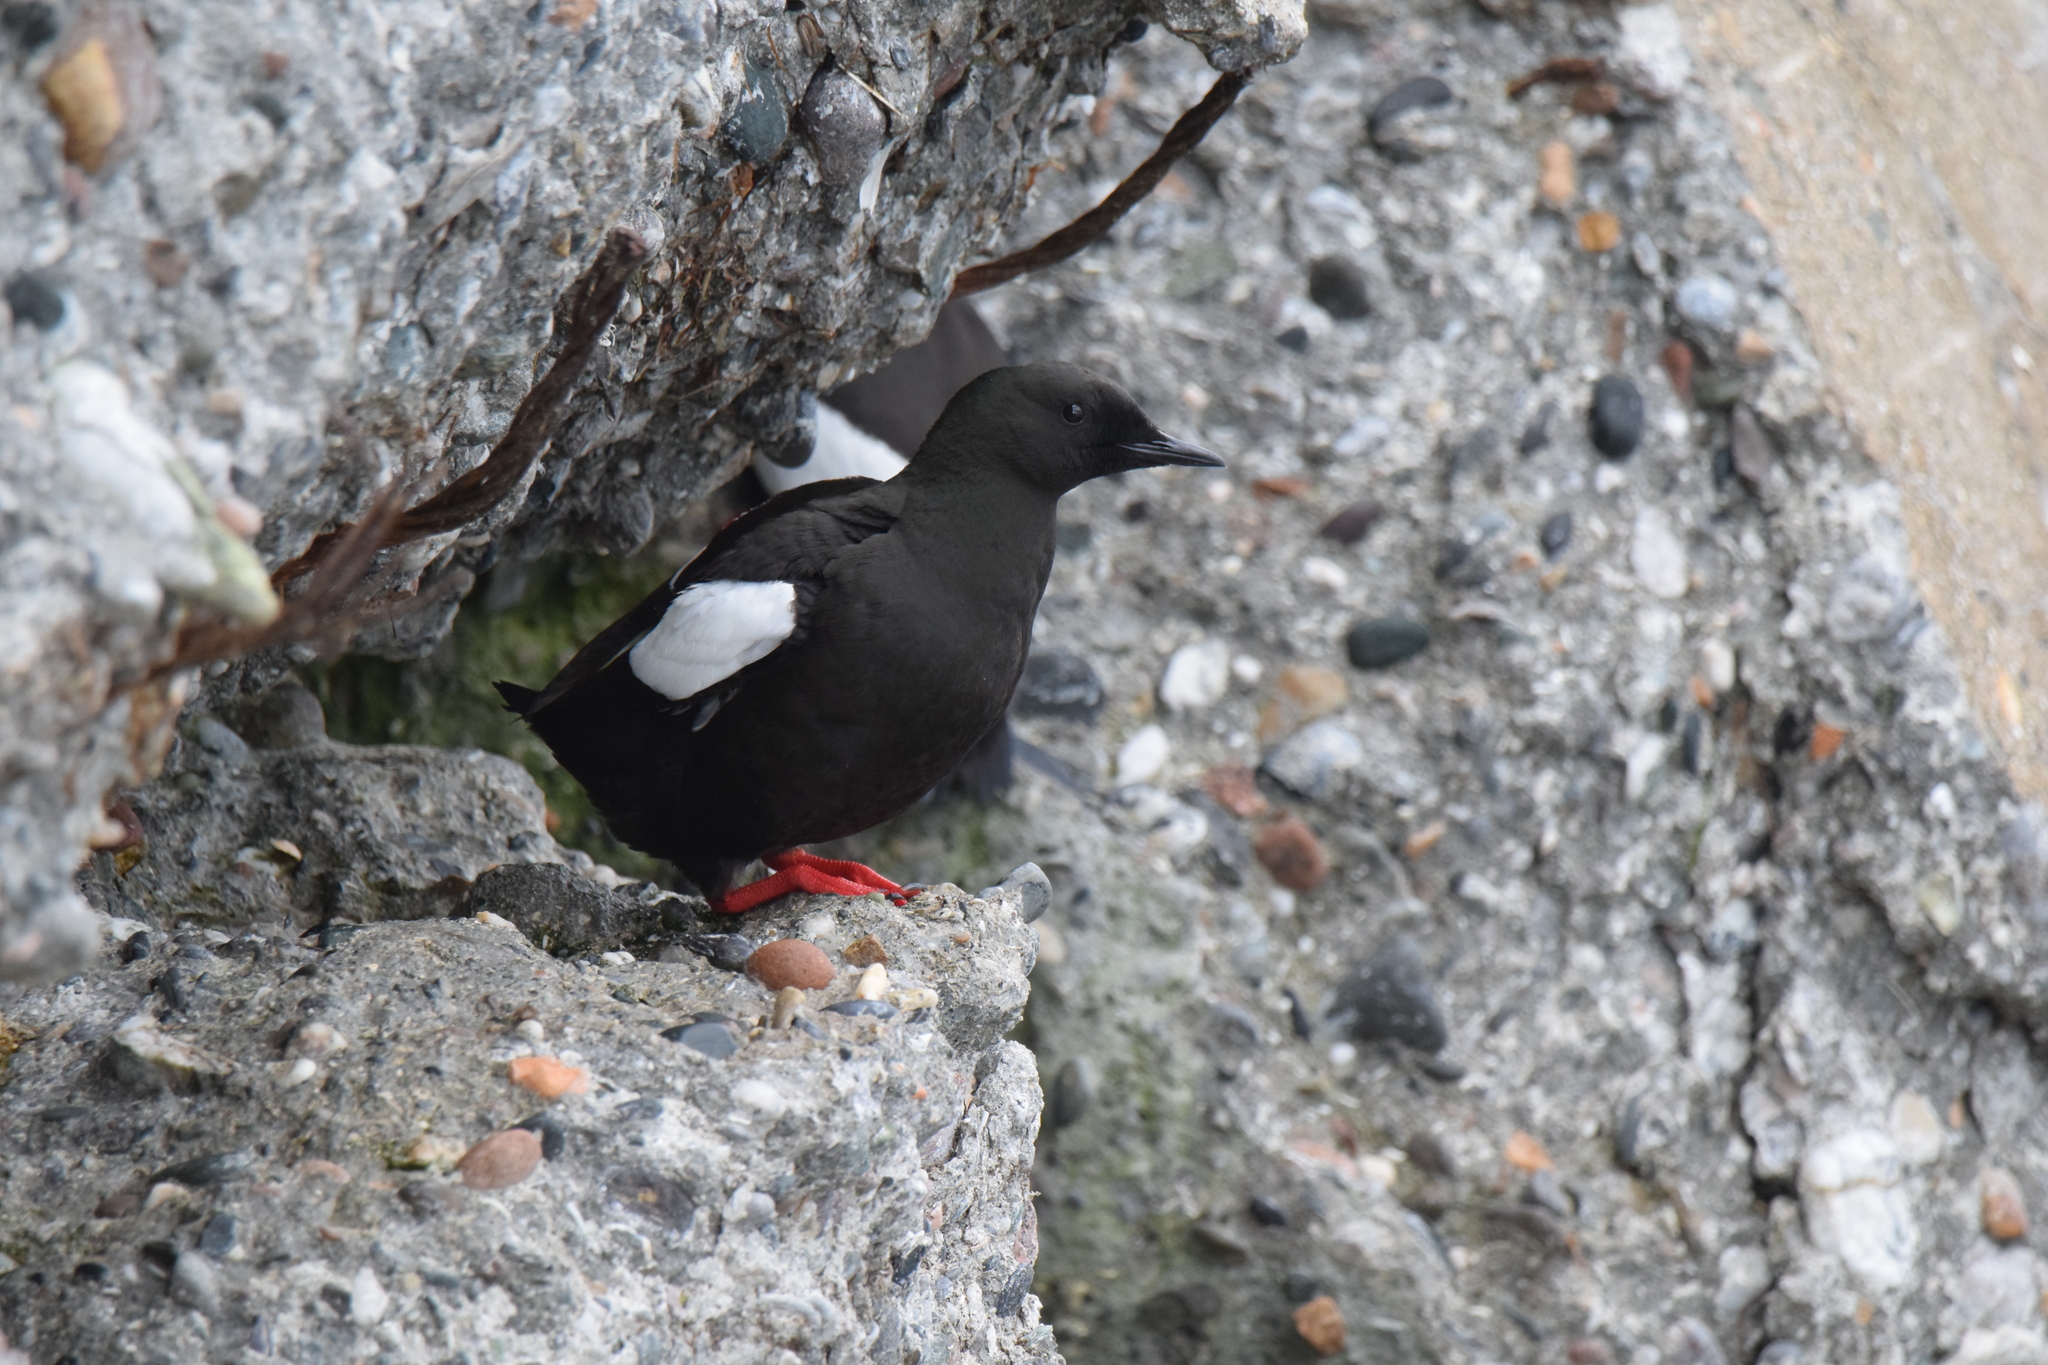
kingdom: Animalia
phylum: Chordata
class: Aves
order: Charadriiformes
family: Alcidae
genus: Cepphus
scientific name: Cepphus grylle
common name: Black guillemot
